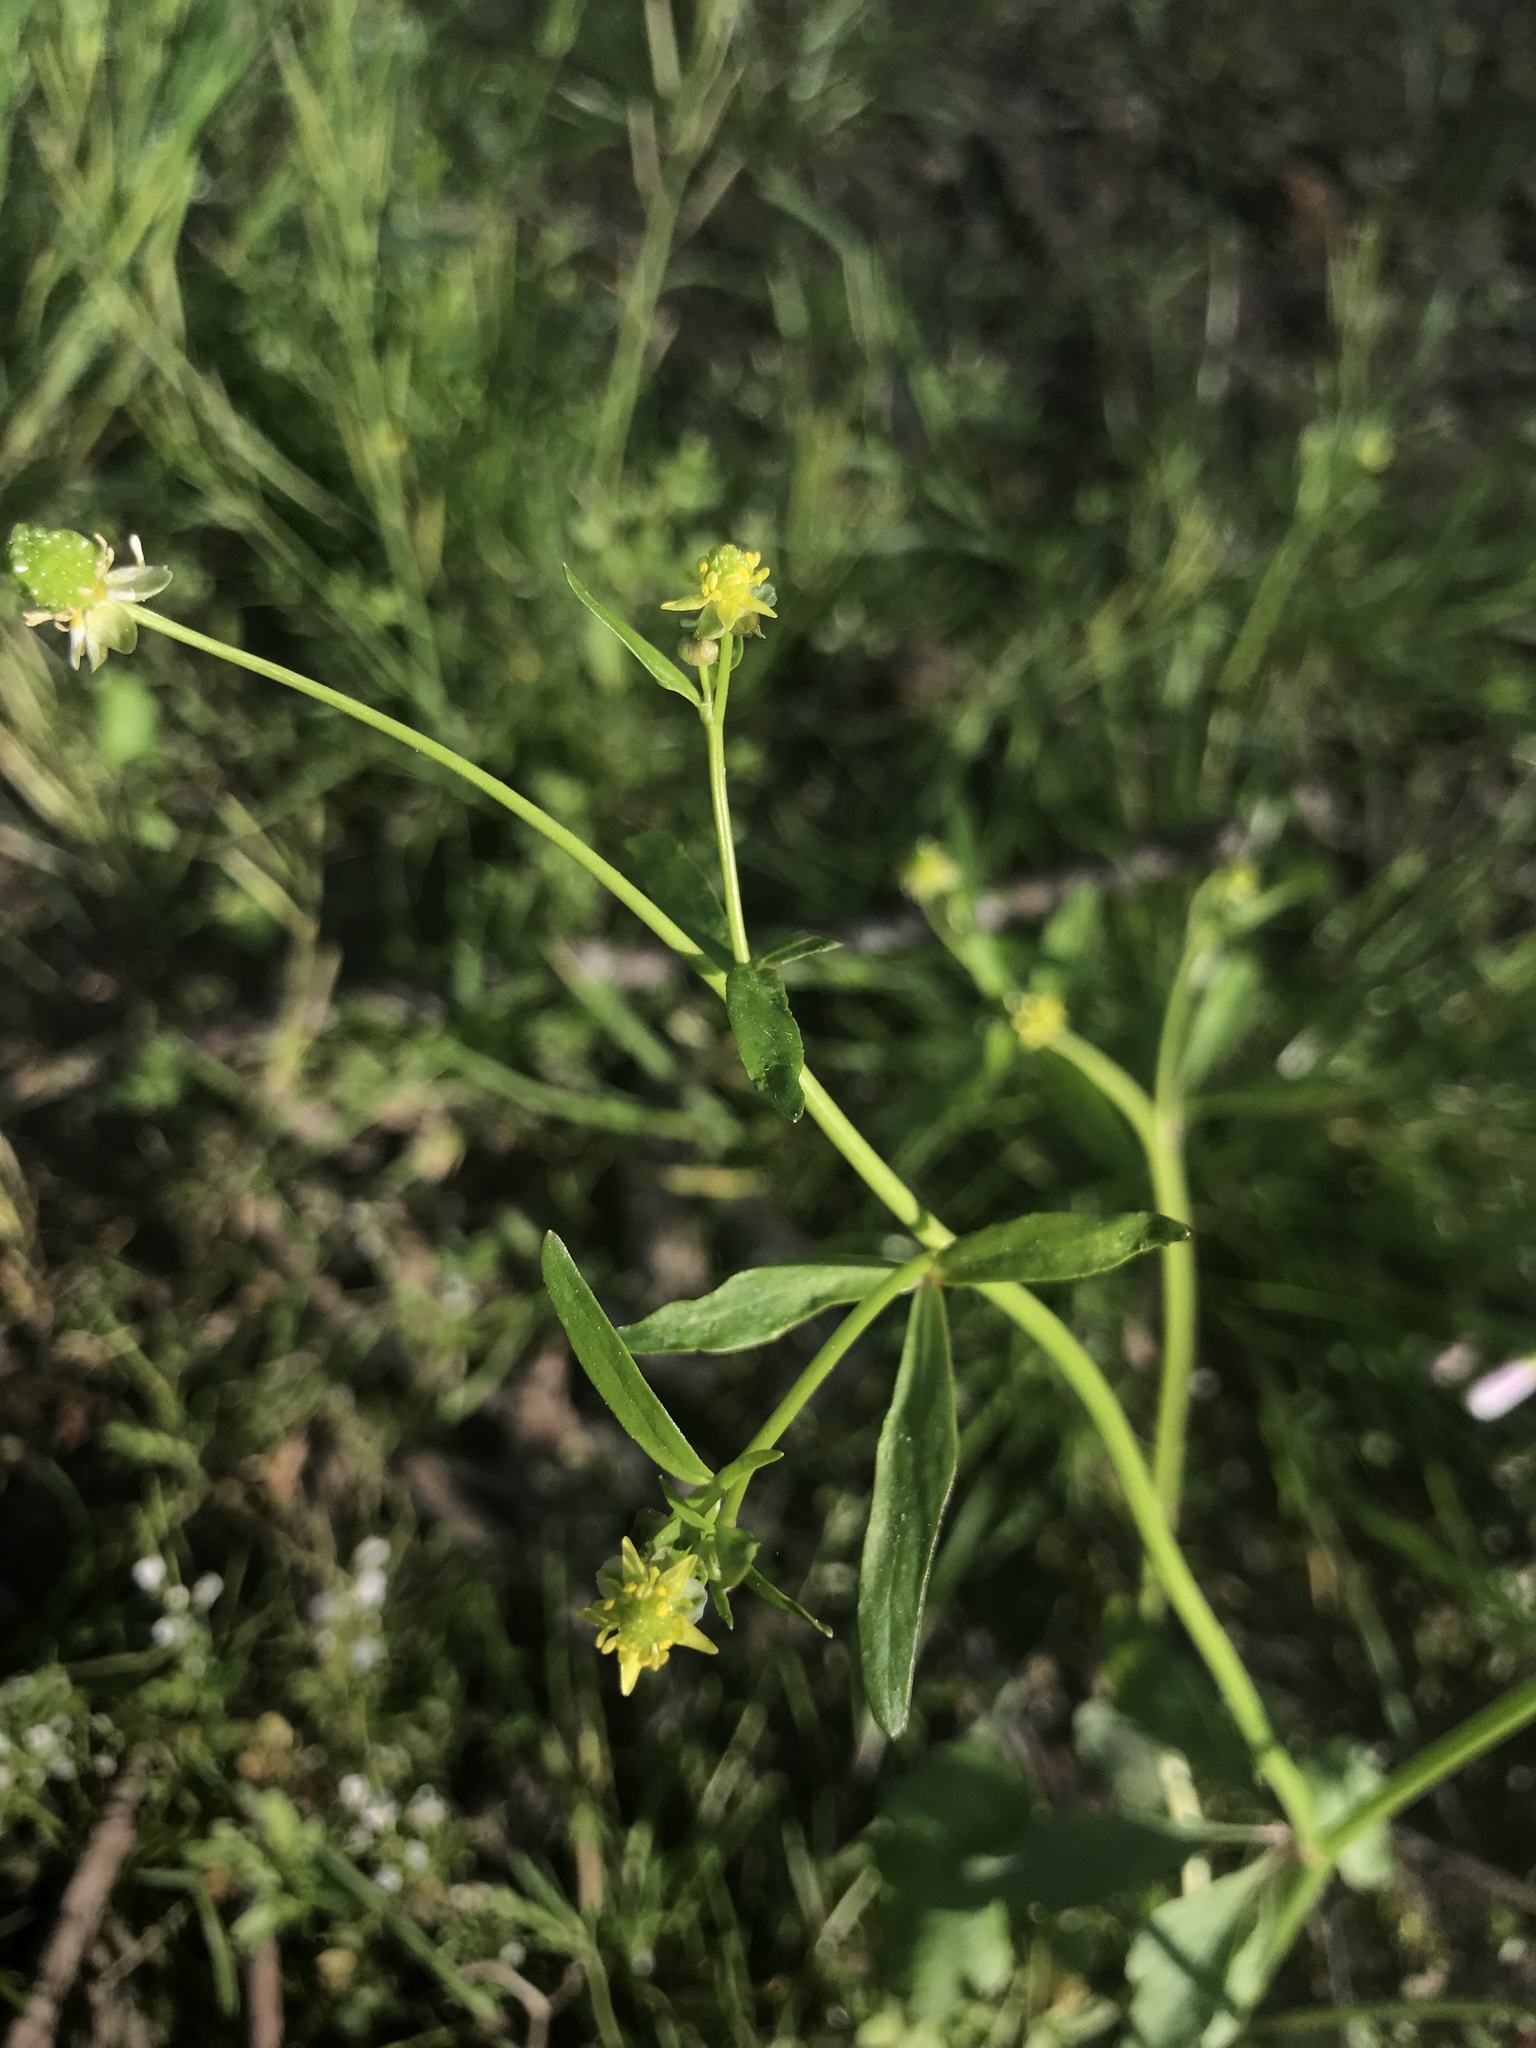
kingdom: Plantae
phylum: Tracheophyta
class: Magnoliopsida
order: Ranunculales
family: Ranunculaceae
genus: Ranunculus
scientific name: Ranunculus abortivus
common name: Early wood buttercup
